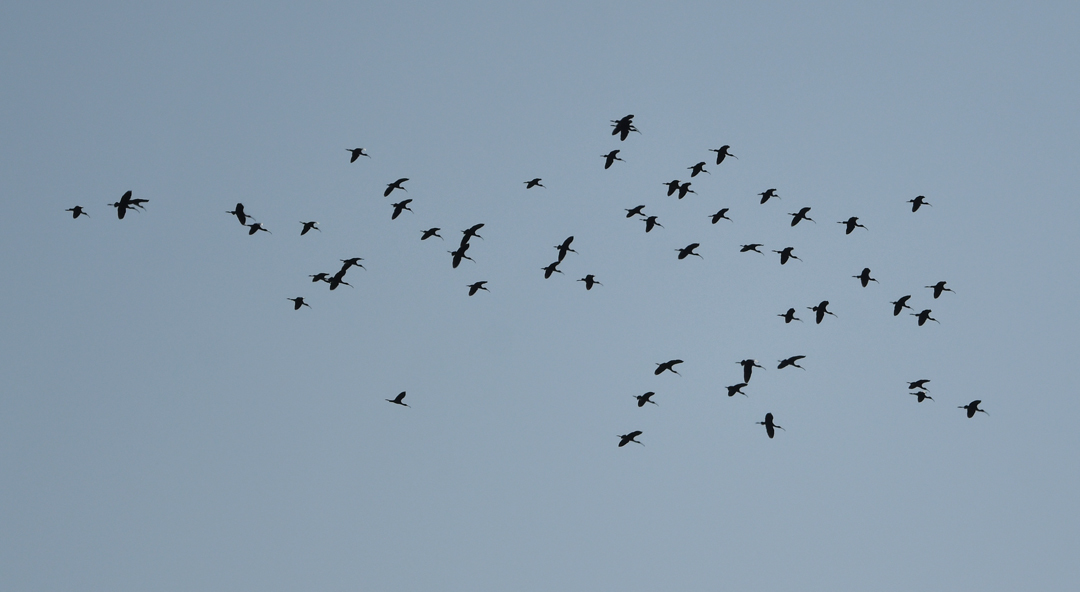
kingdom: Animalia
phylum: Chordata
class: Aves
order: Pelecaniformes
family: Threskiornithidae
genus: Plegadis
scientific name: Plegadis chihi
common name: White-faced ibis
